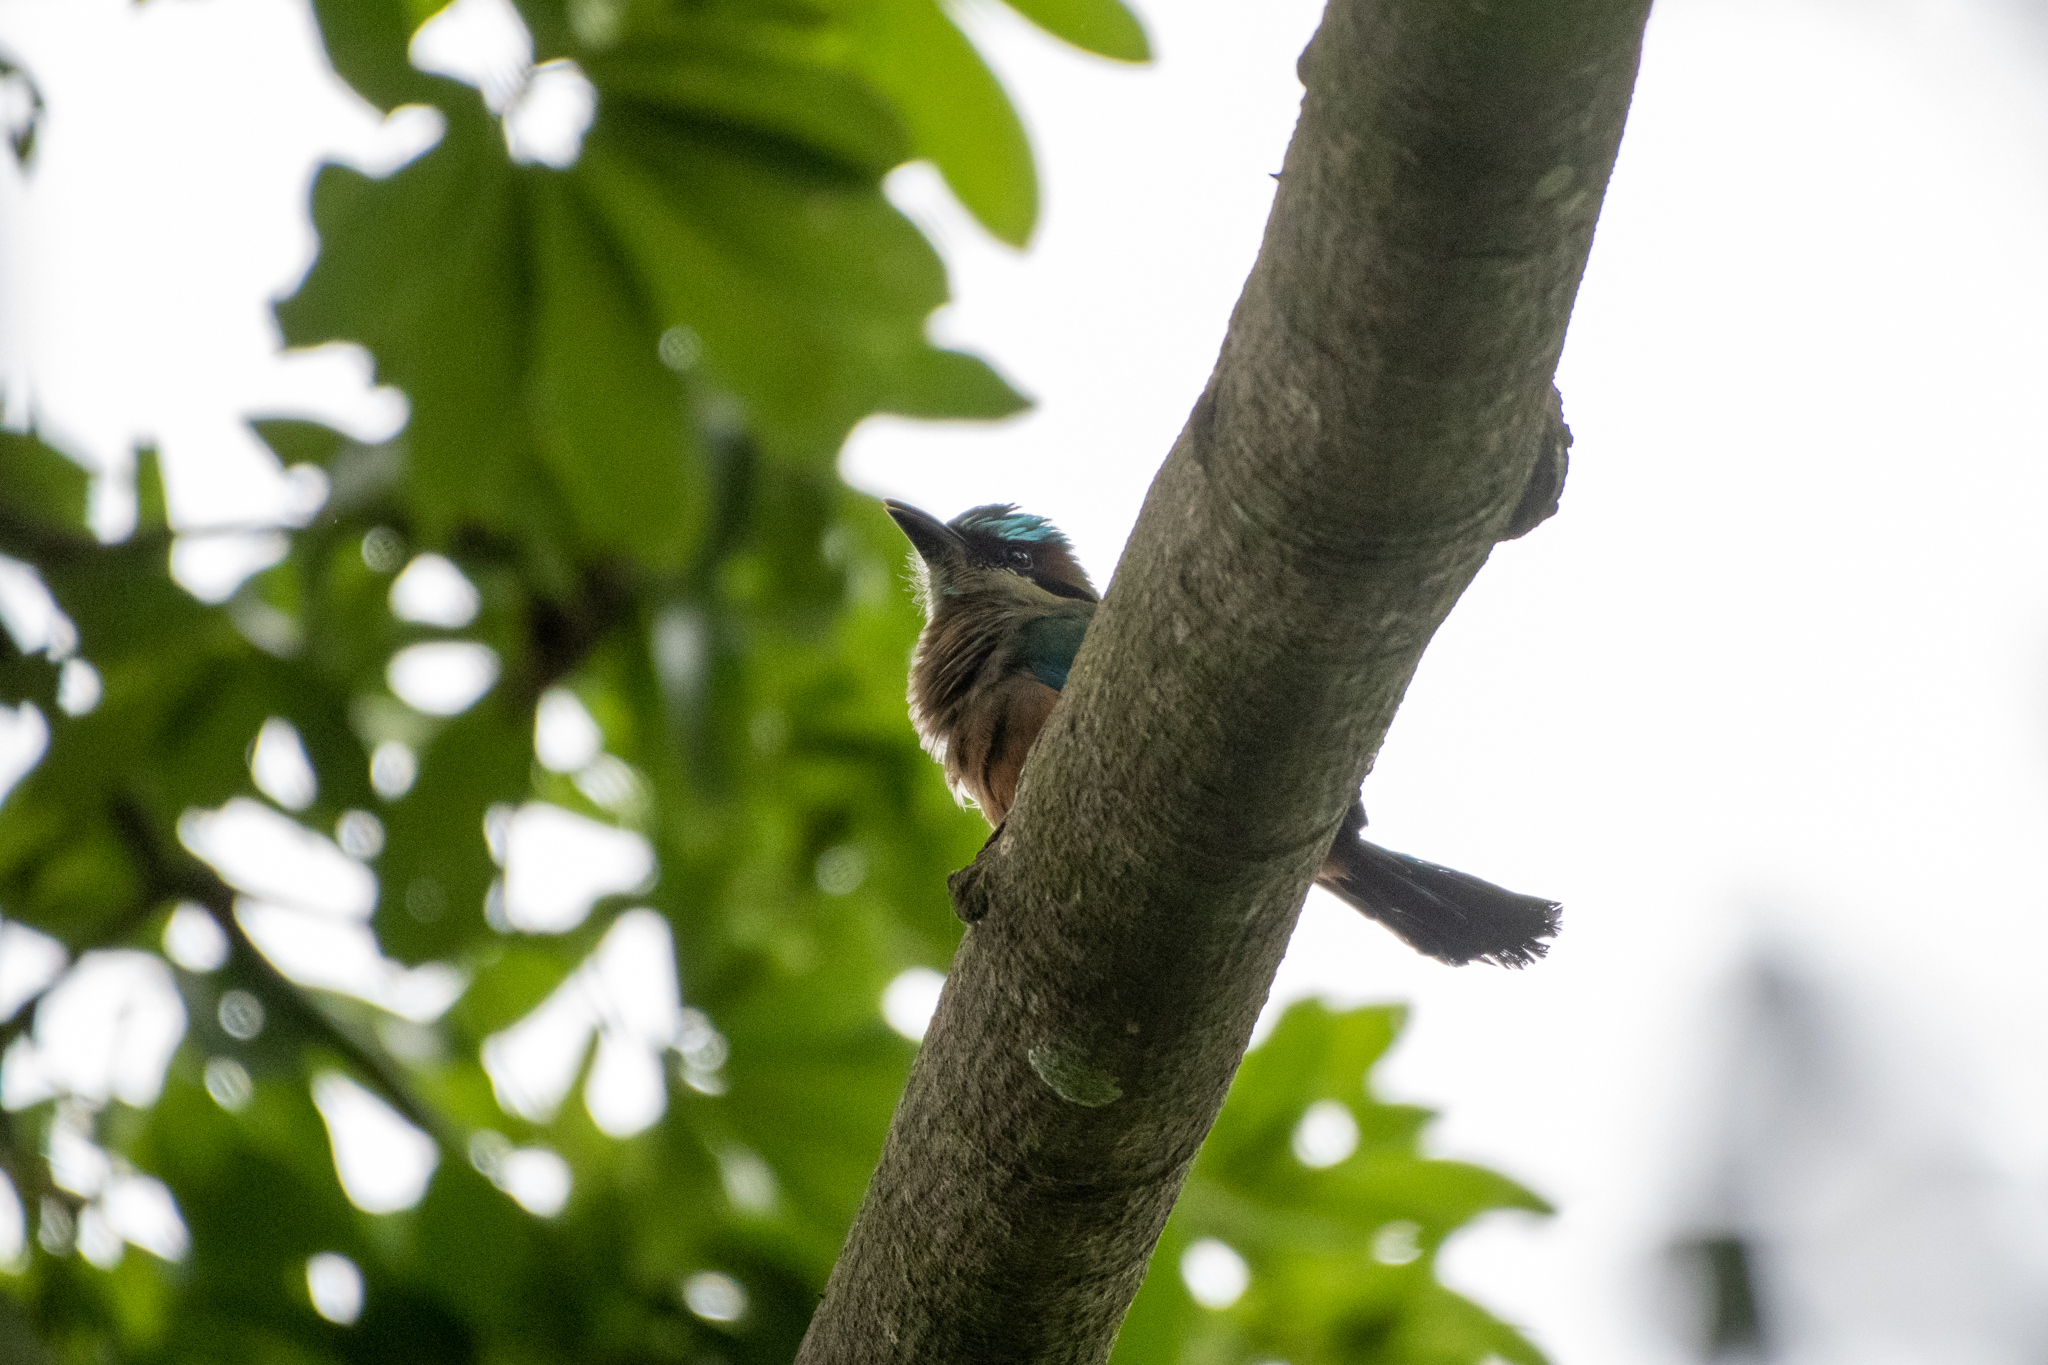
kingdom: Animalia
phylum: Chordata
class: Aves
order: Coraciiformes
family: Momotidae
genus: Eumomota
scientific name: Eumomota superciliosa
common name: Turquoise-browed motmot
